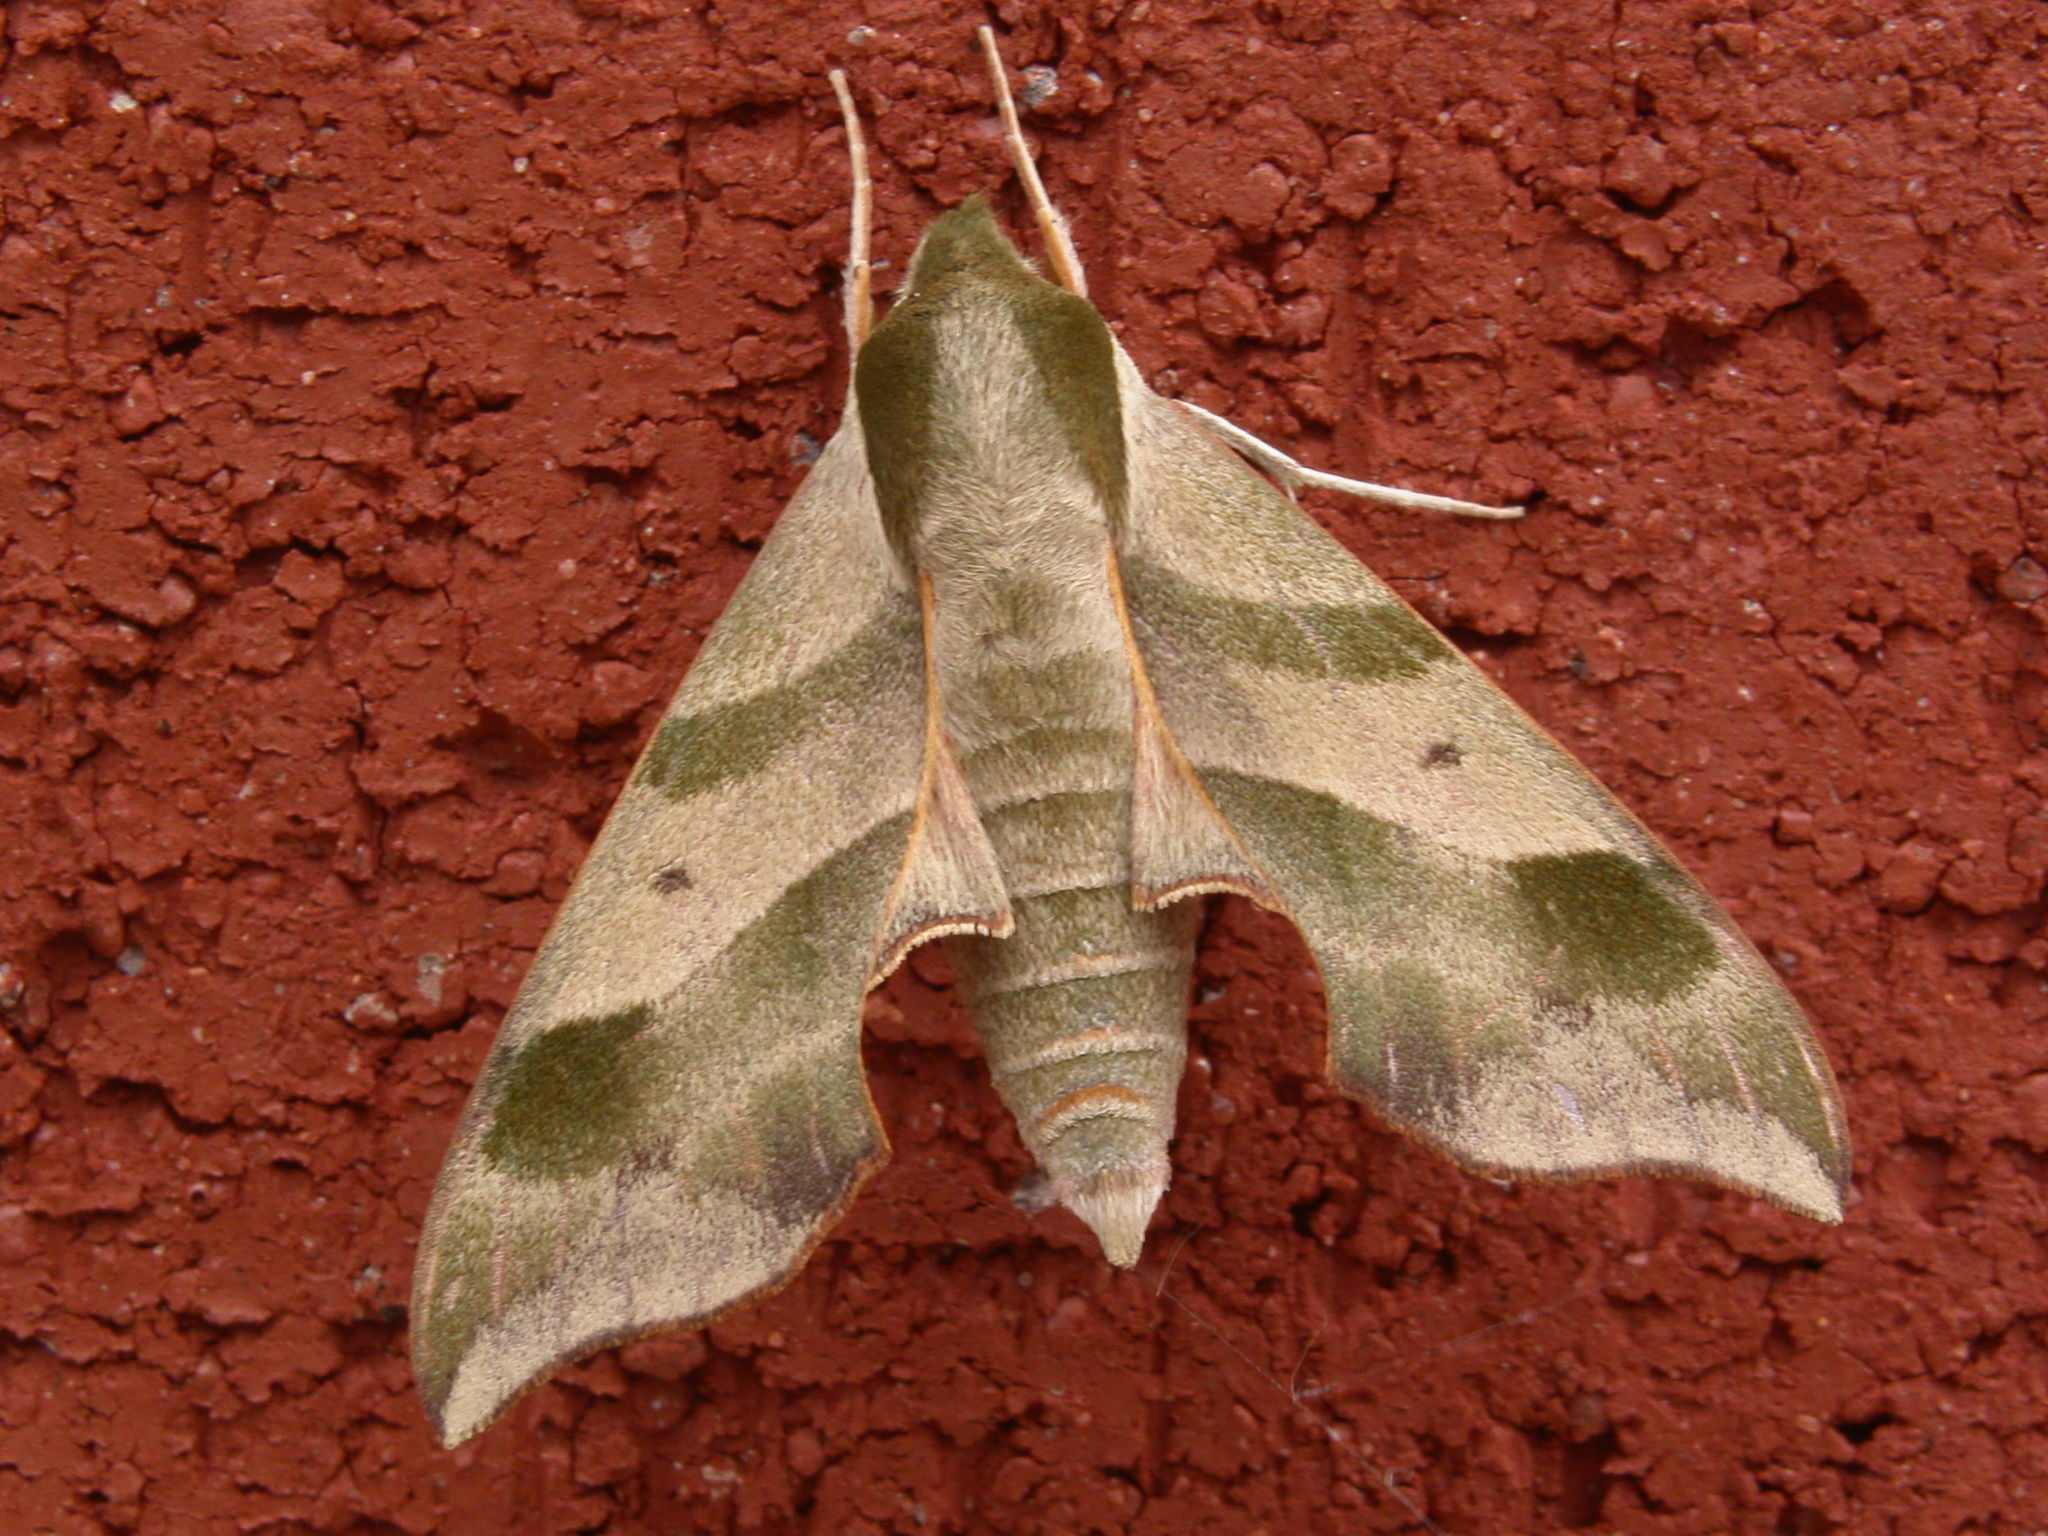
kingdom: Animalia
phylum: Arthropoda
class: Insecta
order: Lepidoptera
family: Sphingidae
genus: Darapsa
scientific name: Darapsa myron
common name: Hog sphinx
